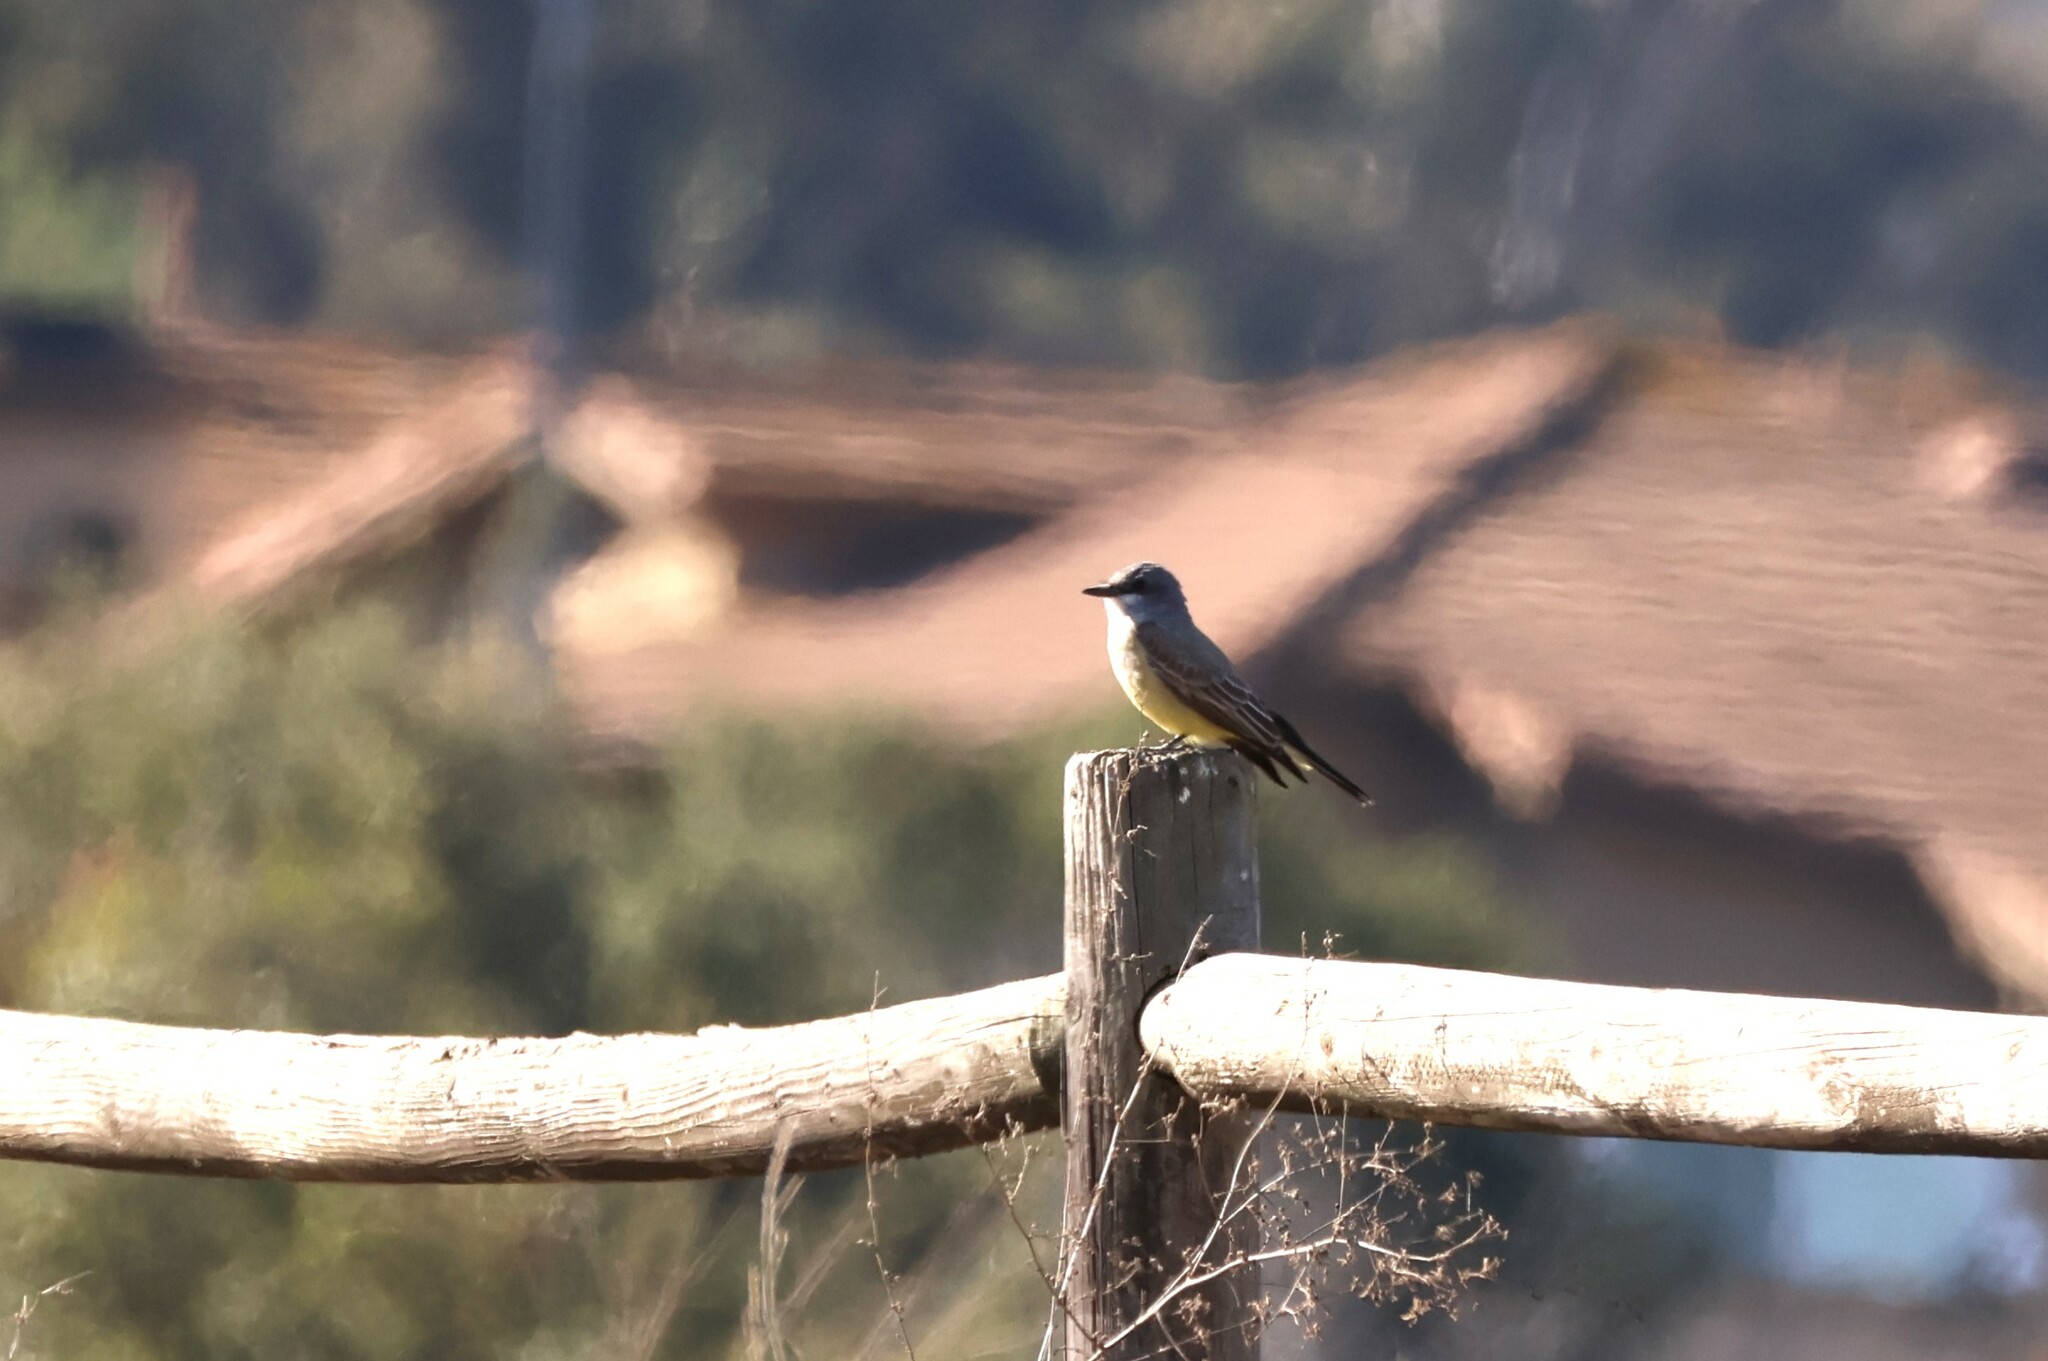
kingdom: Animalia
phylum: Chordata
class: Aves
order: Passeriformes
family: Tyrannidae
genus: Tyrannus
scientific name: Tyrannus vociferans
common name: Cassin's kingbird
